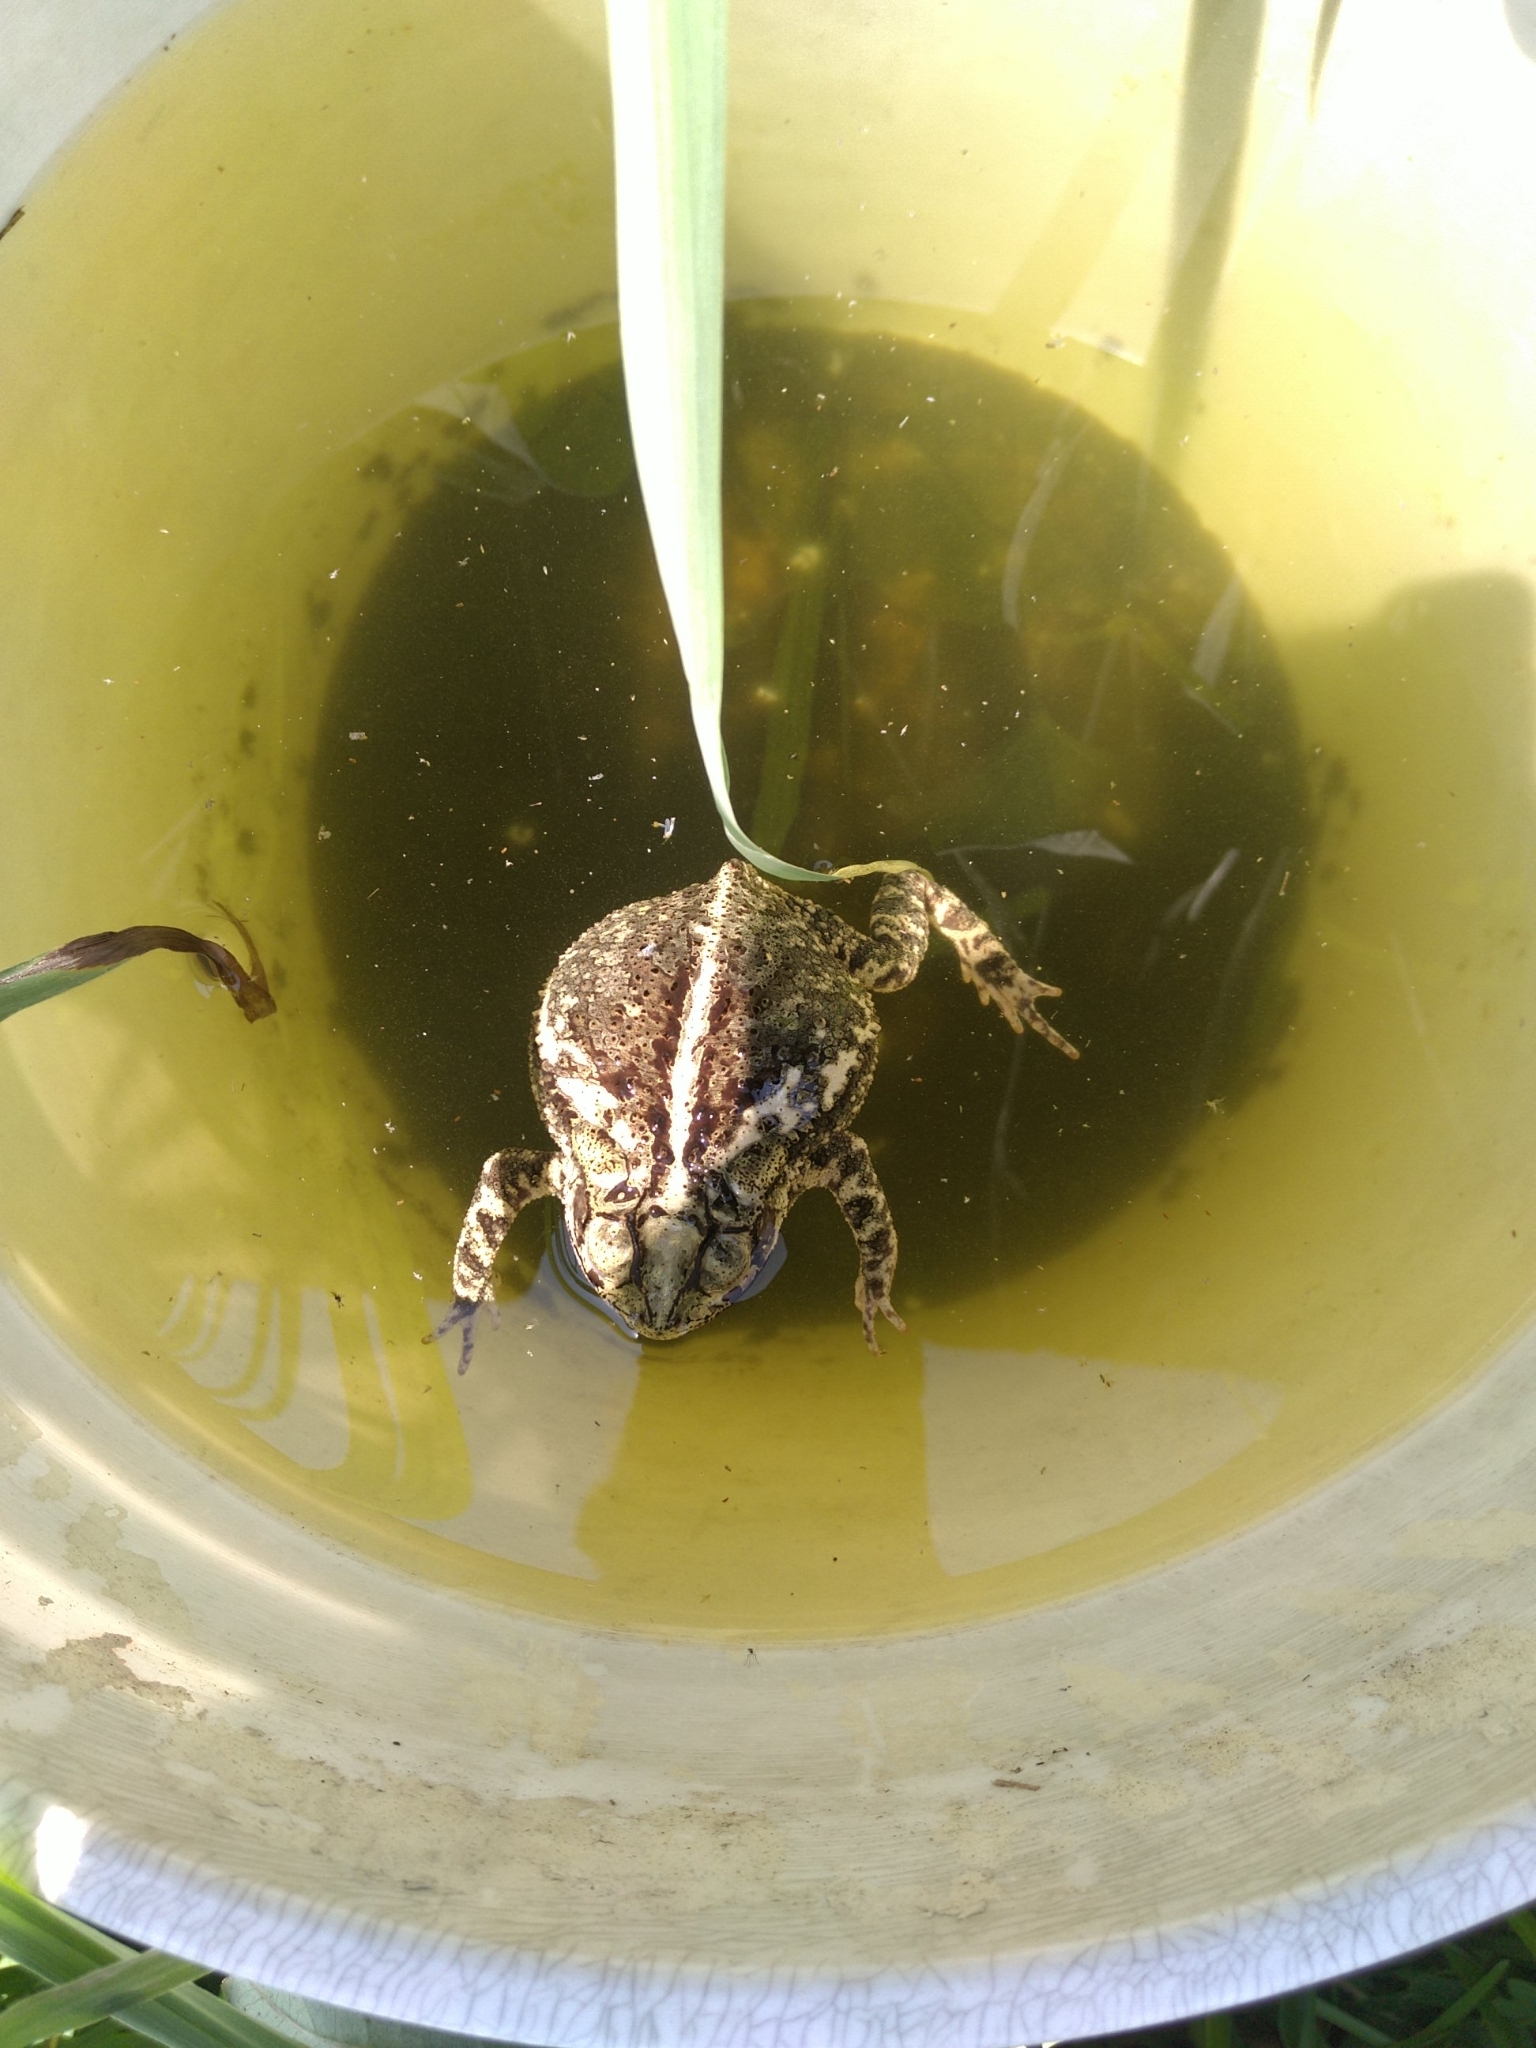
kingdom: Animalia
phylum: Chordata
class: Amphibia
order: Anura
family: Bufonidae
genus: Incilius
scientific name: Incilius nebulifer
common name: Gulf coast toad
